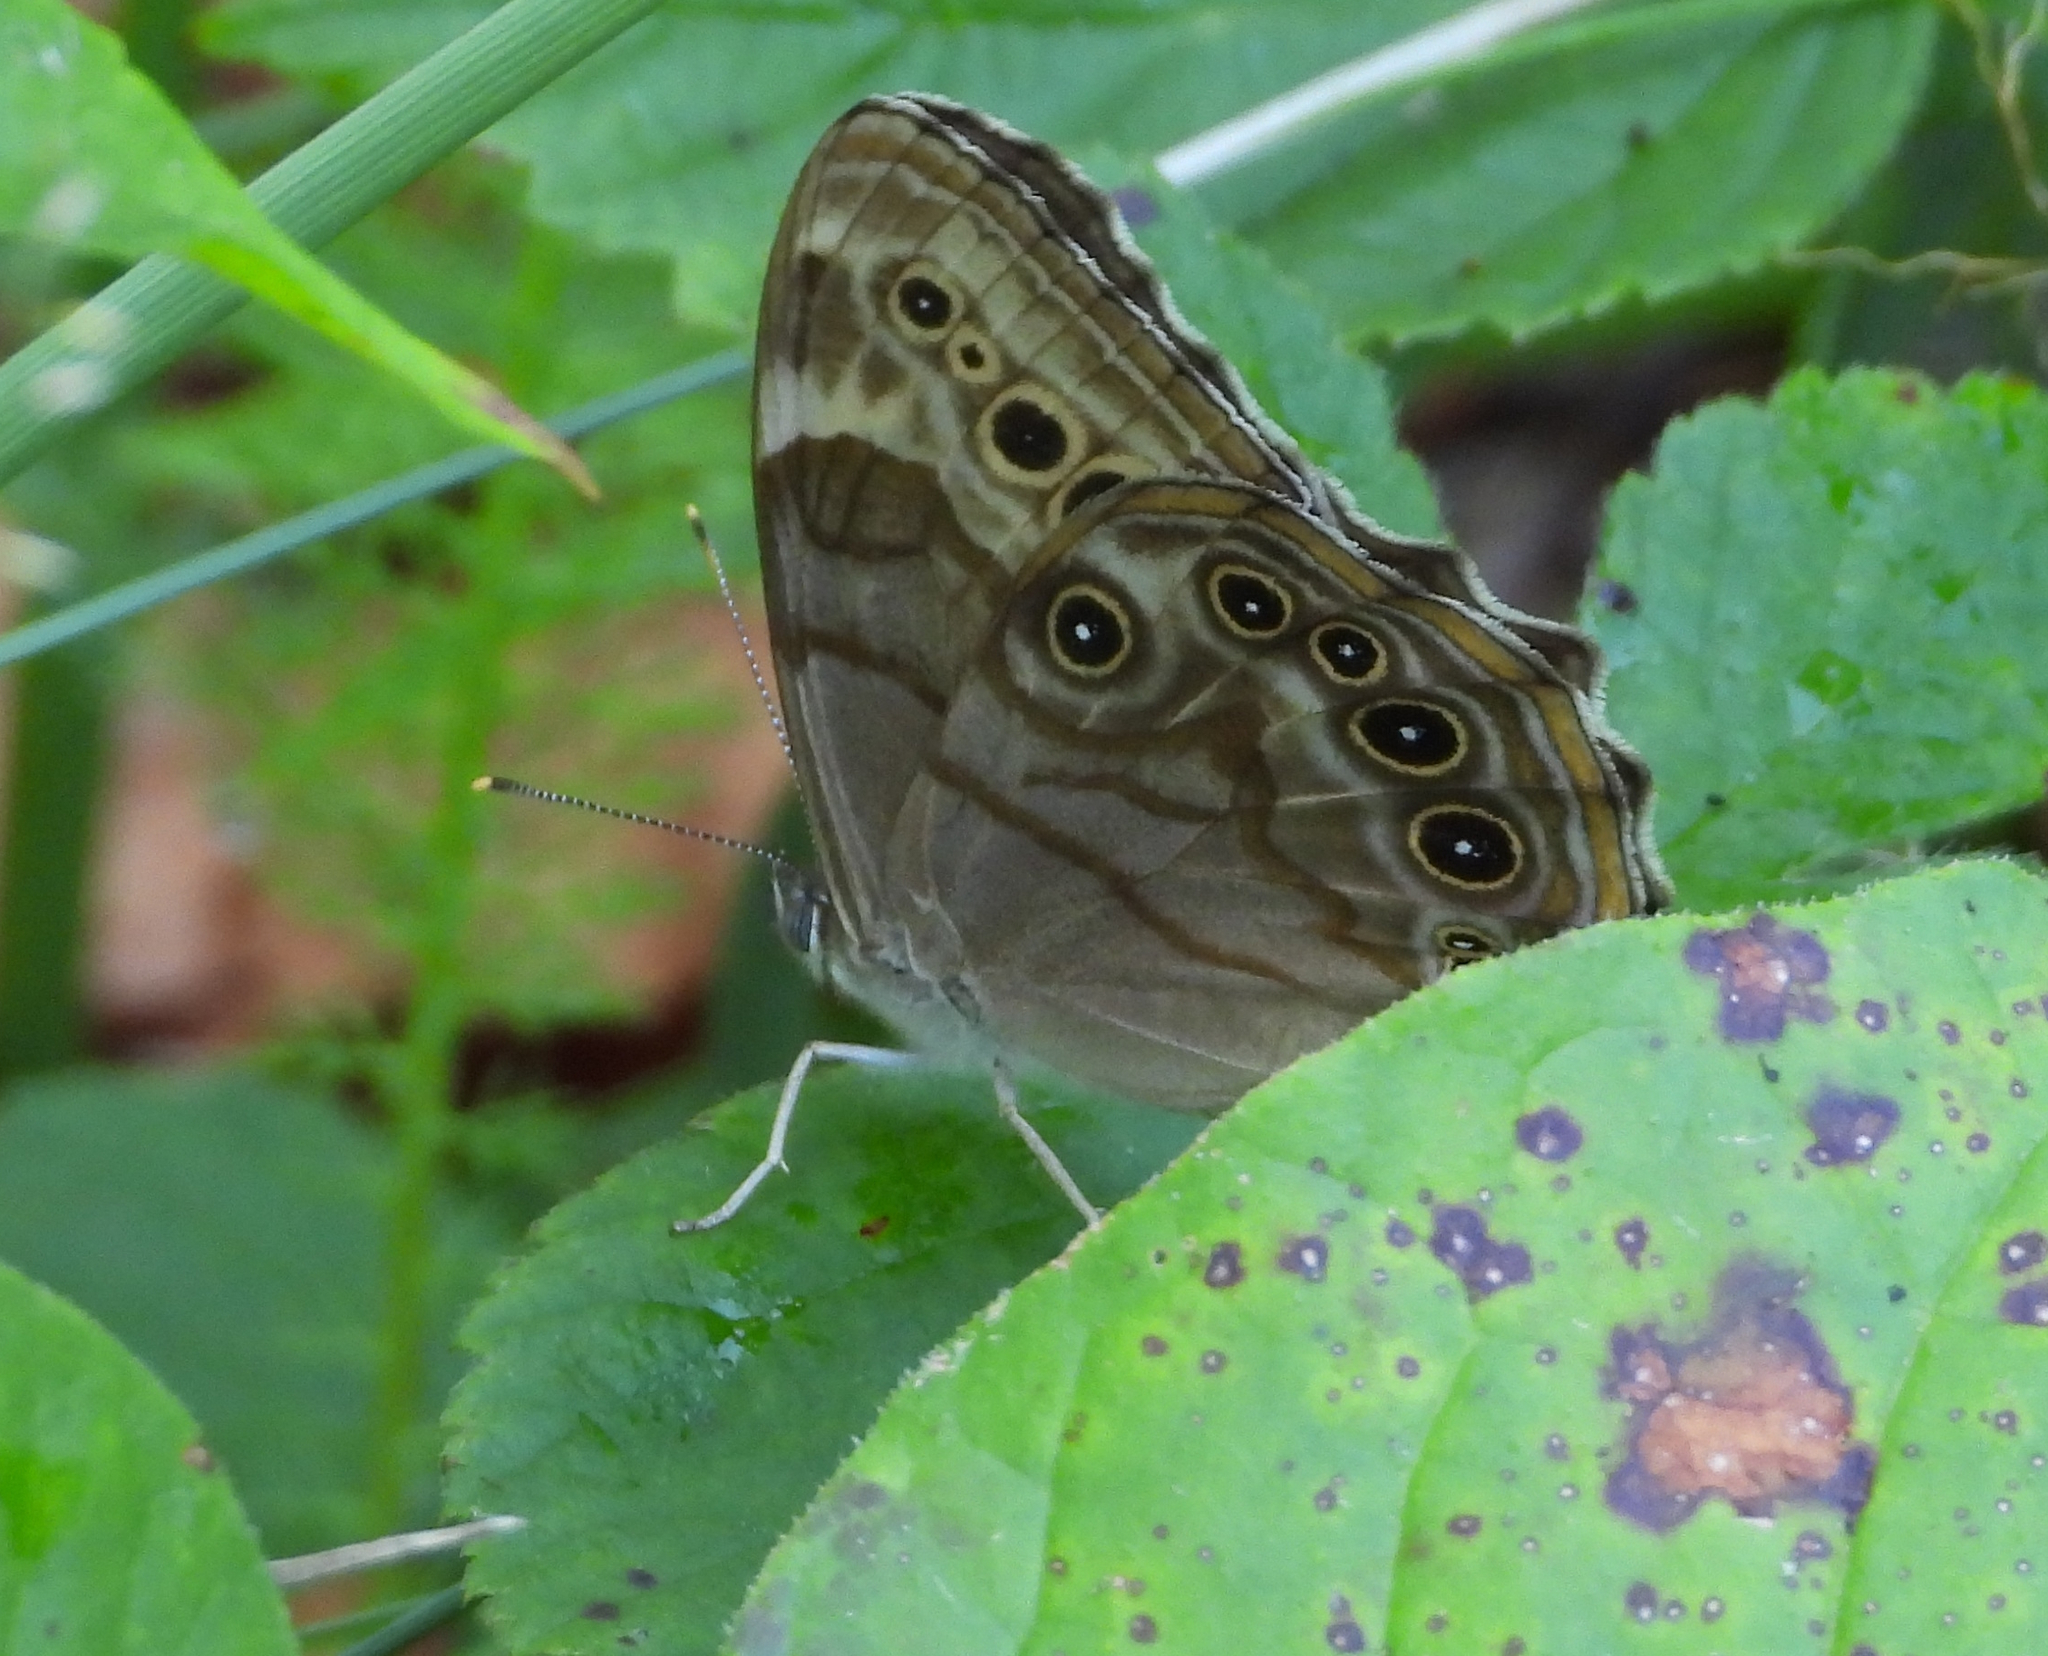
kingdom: Animalia
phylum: Arthropoda
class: Insecta
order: Lepidoptera
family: Nymphalidae
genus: Lethe
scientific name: Lethe anthedon
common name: Northern pearly-eye
